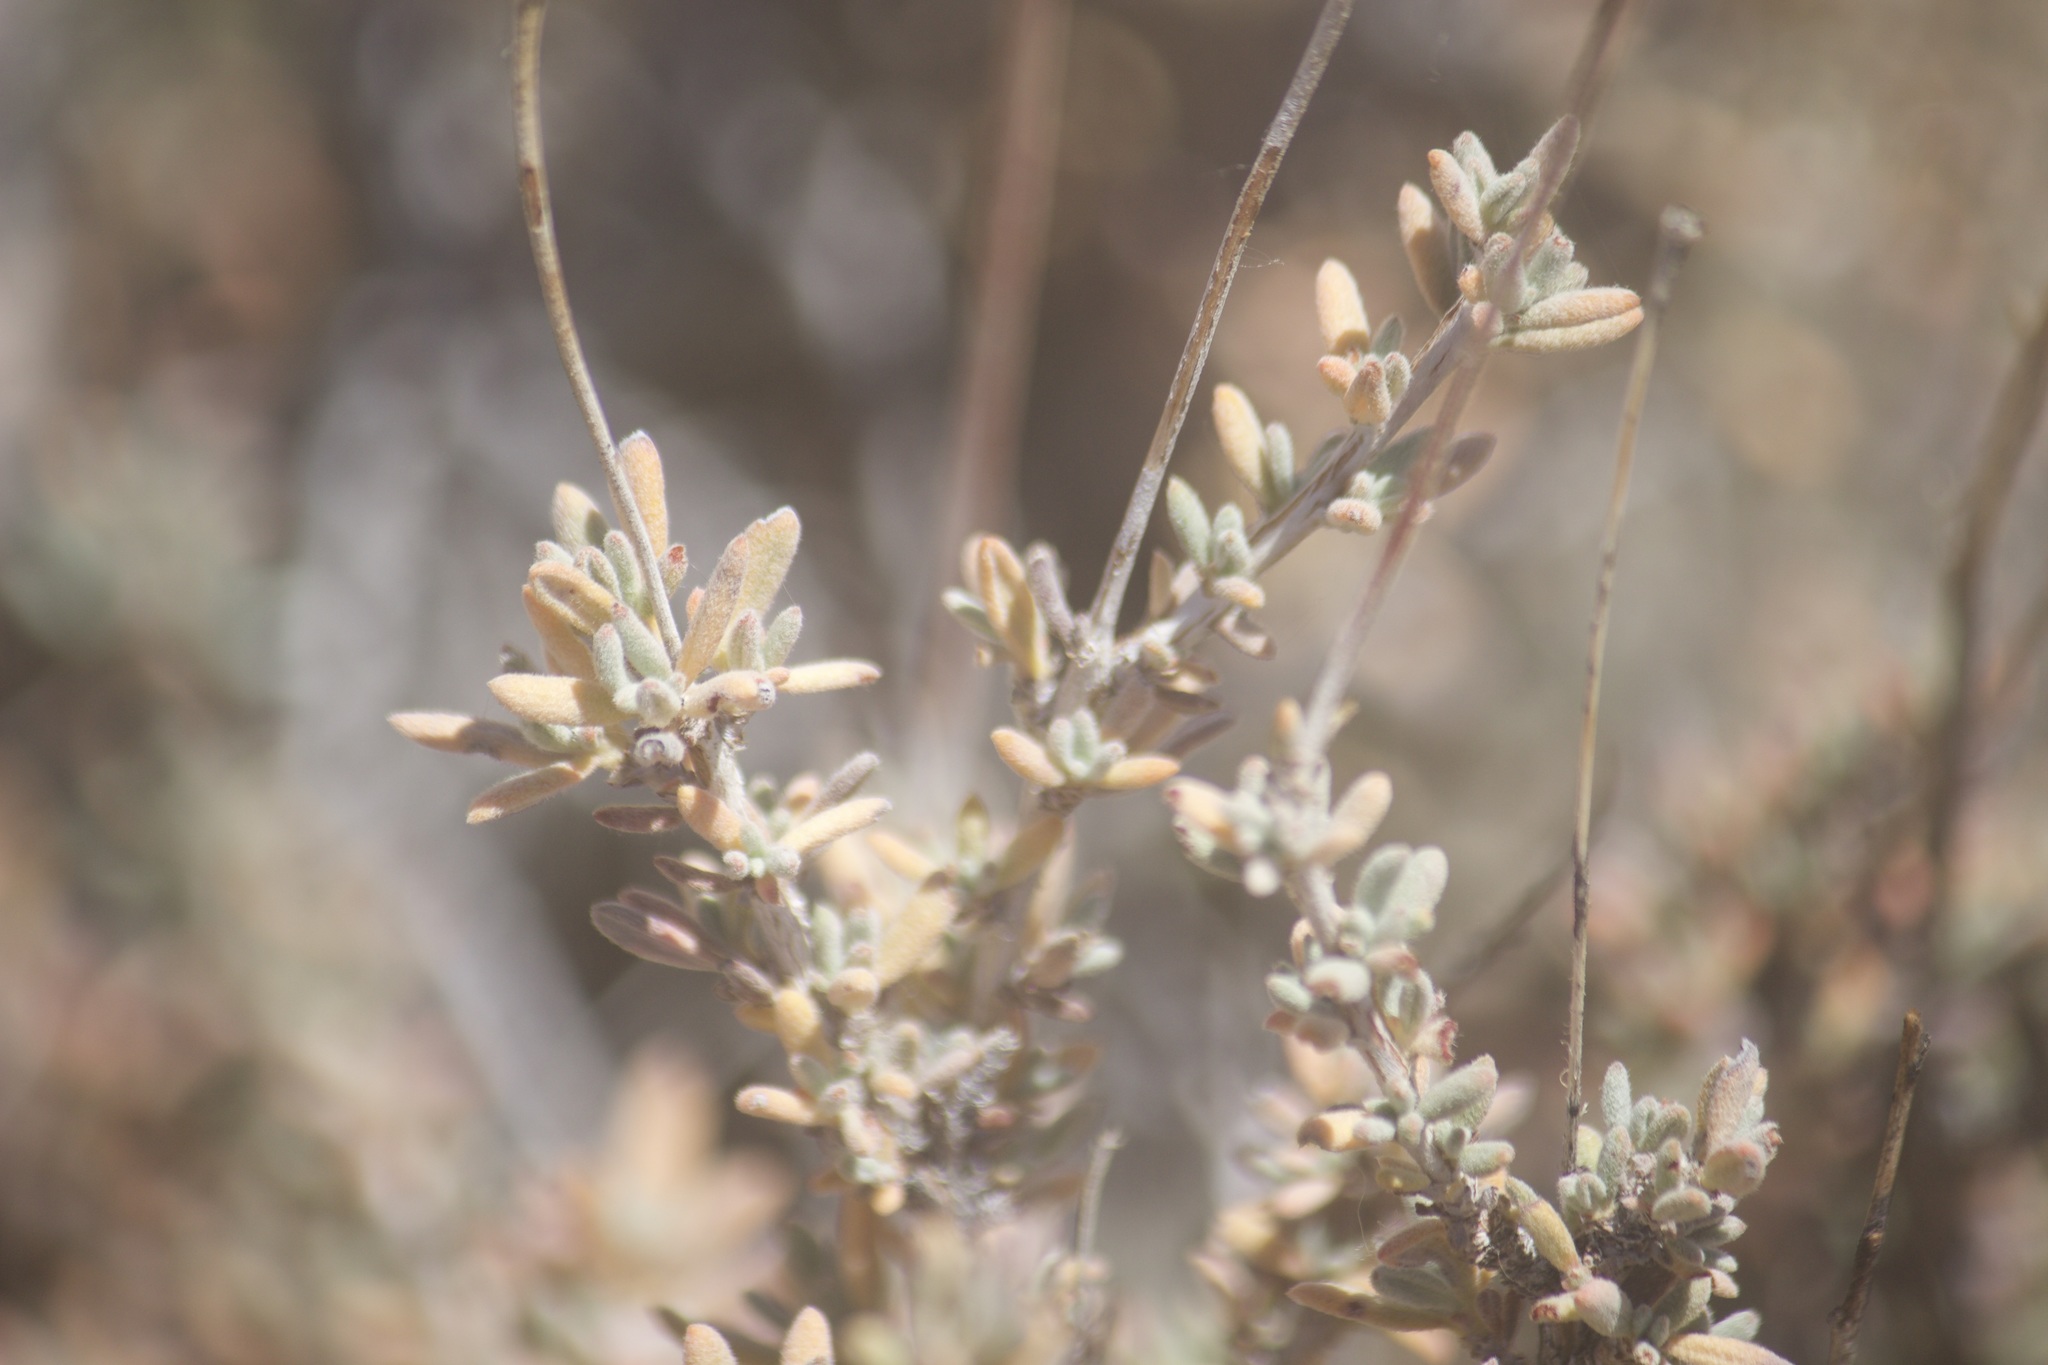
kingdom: Plantae
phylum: Tracheophyta
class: Magnoliopsida
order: Caryophyllales
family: Polygonaceae
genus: Eriogonum
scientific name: Eriogonum fasciculatum
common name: California wild buckwheat
